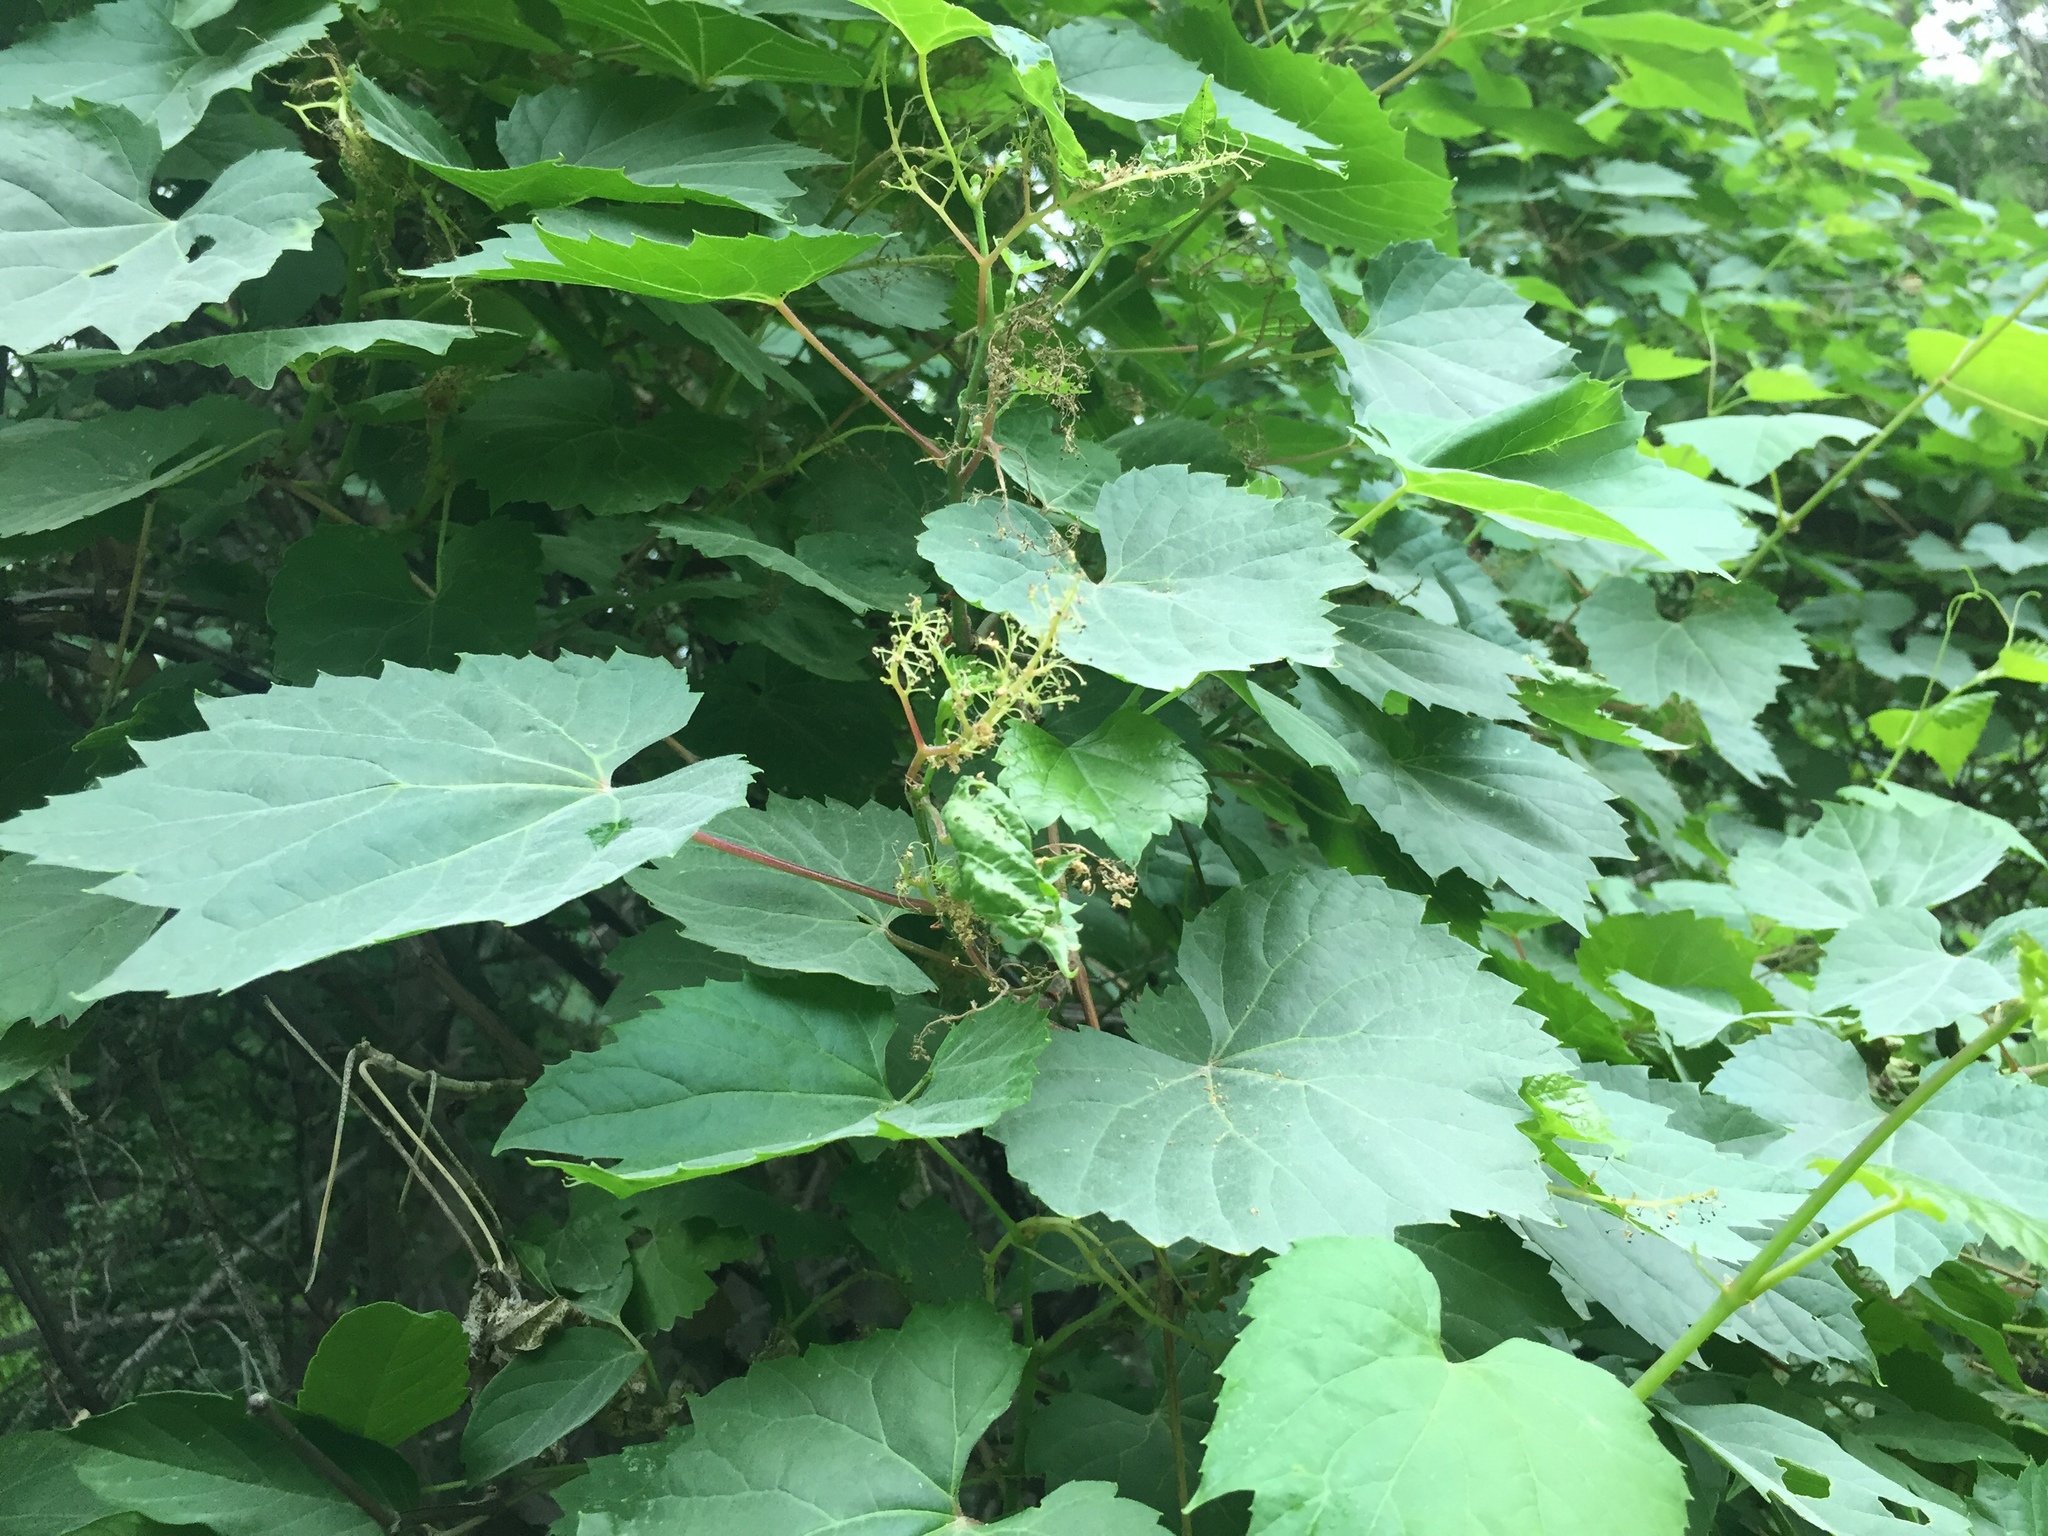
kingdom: Plantae
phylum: Tracheophyta
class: Magnoliopsida
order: Vitales
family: Vitaceae
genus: Vitis
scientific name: Vitis riparia
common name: Frost grape
